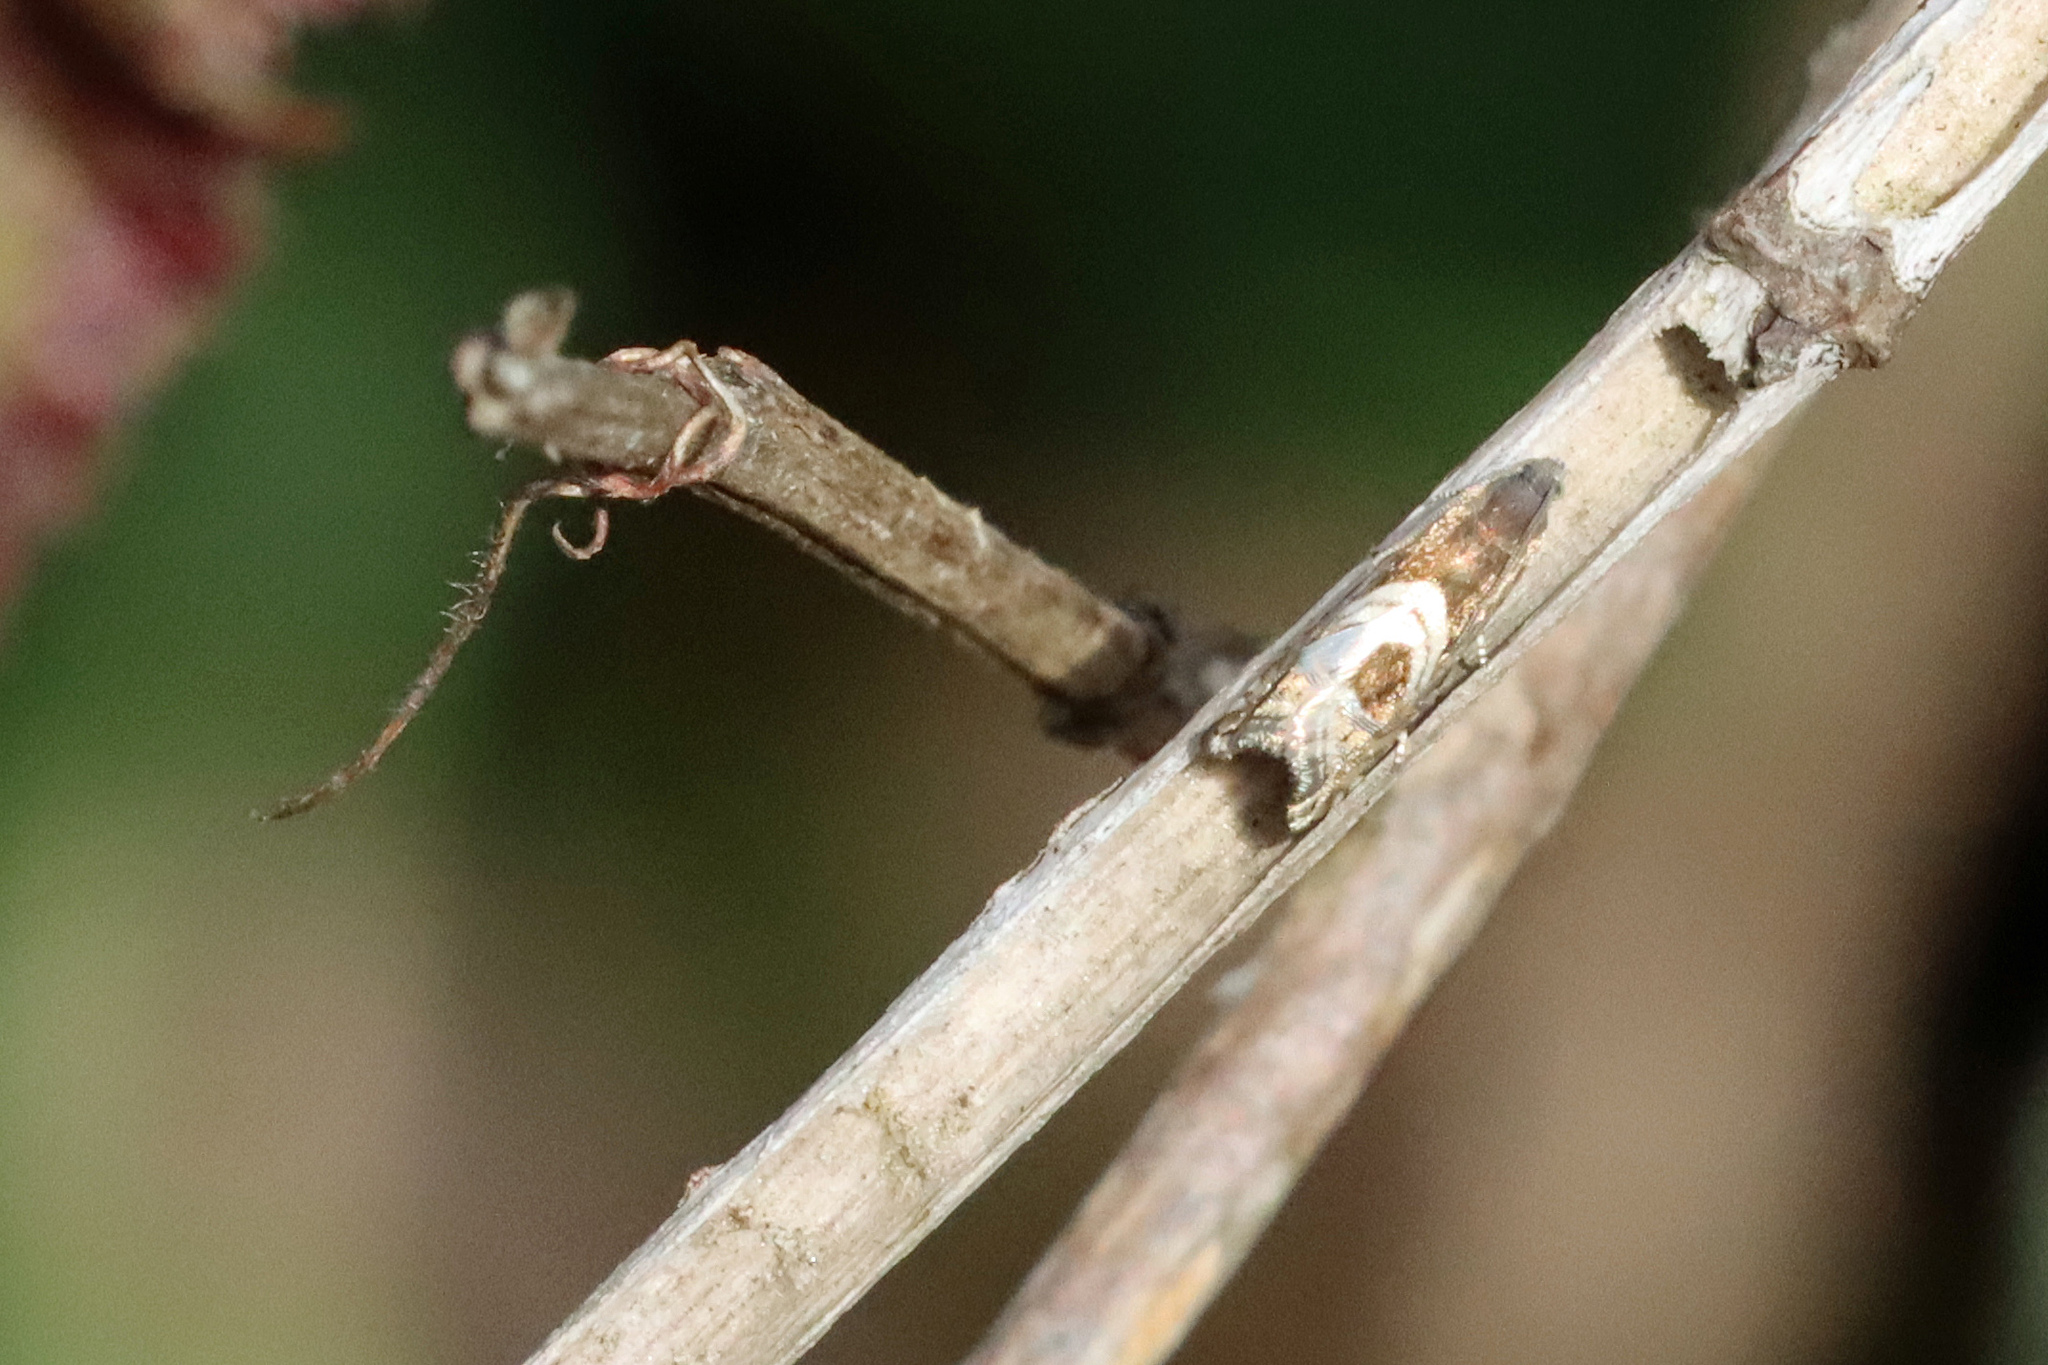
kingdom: Animalia
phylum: Arthropoda
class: Insecta
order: Lepidoptera
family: Tortricidae
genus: Grapholita
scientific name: Grapholita
